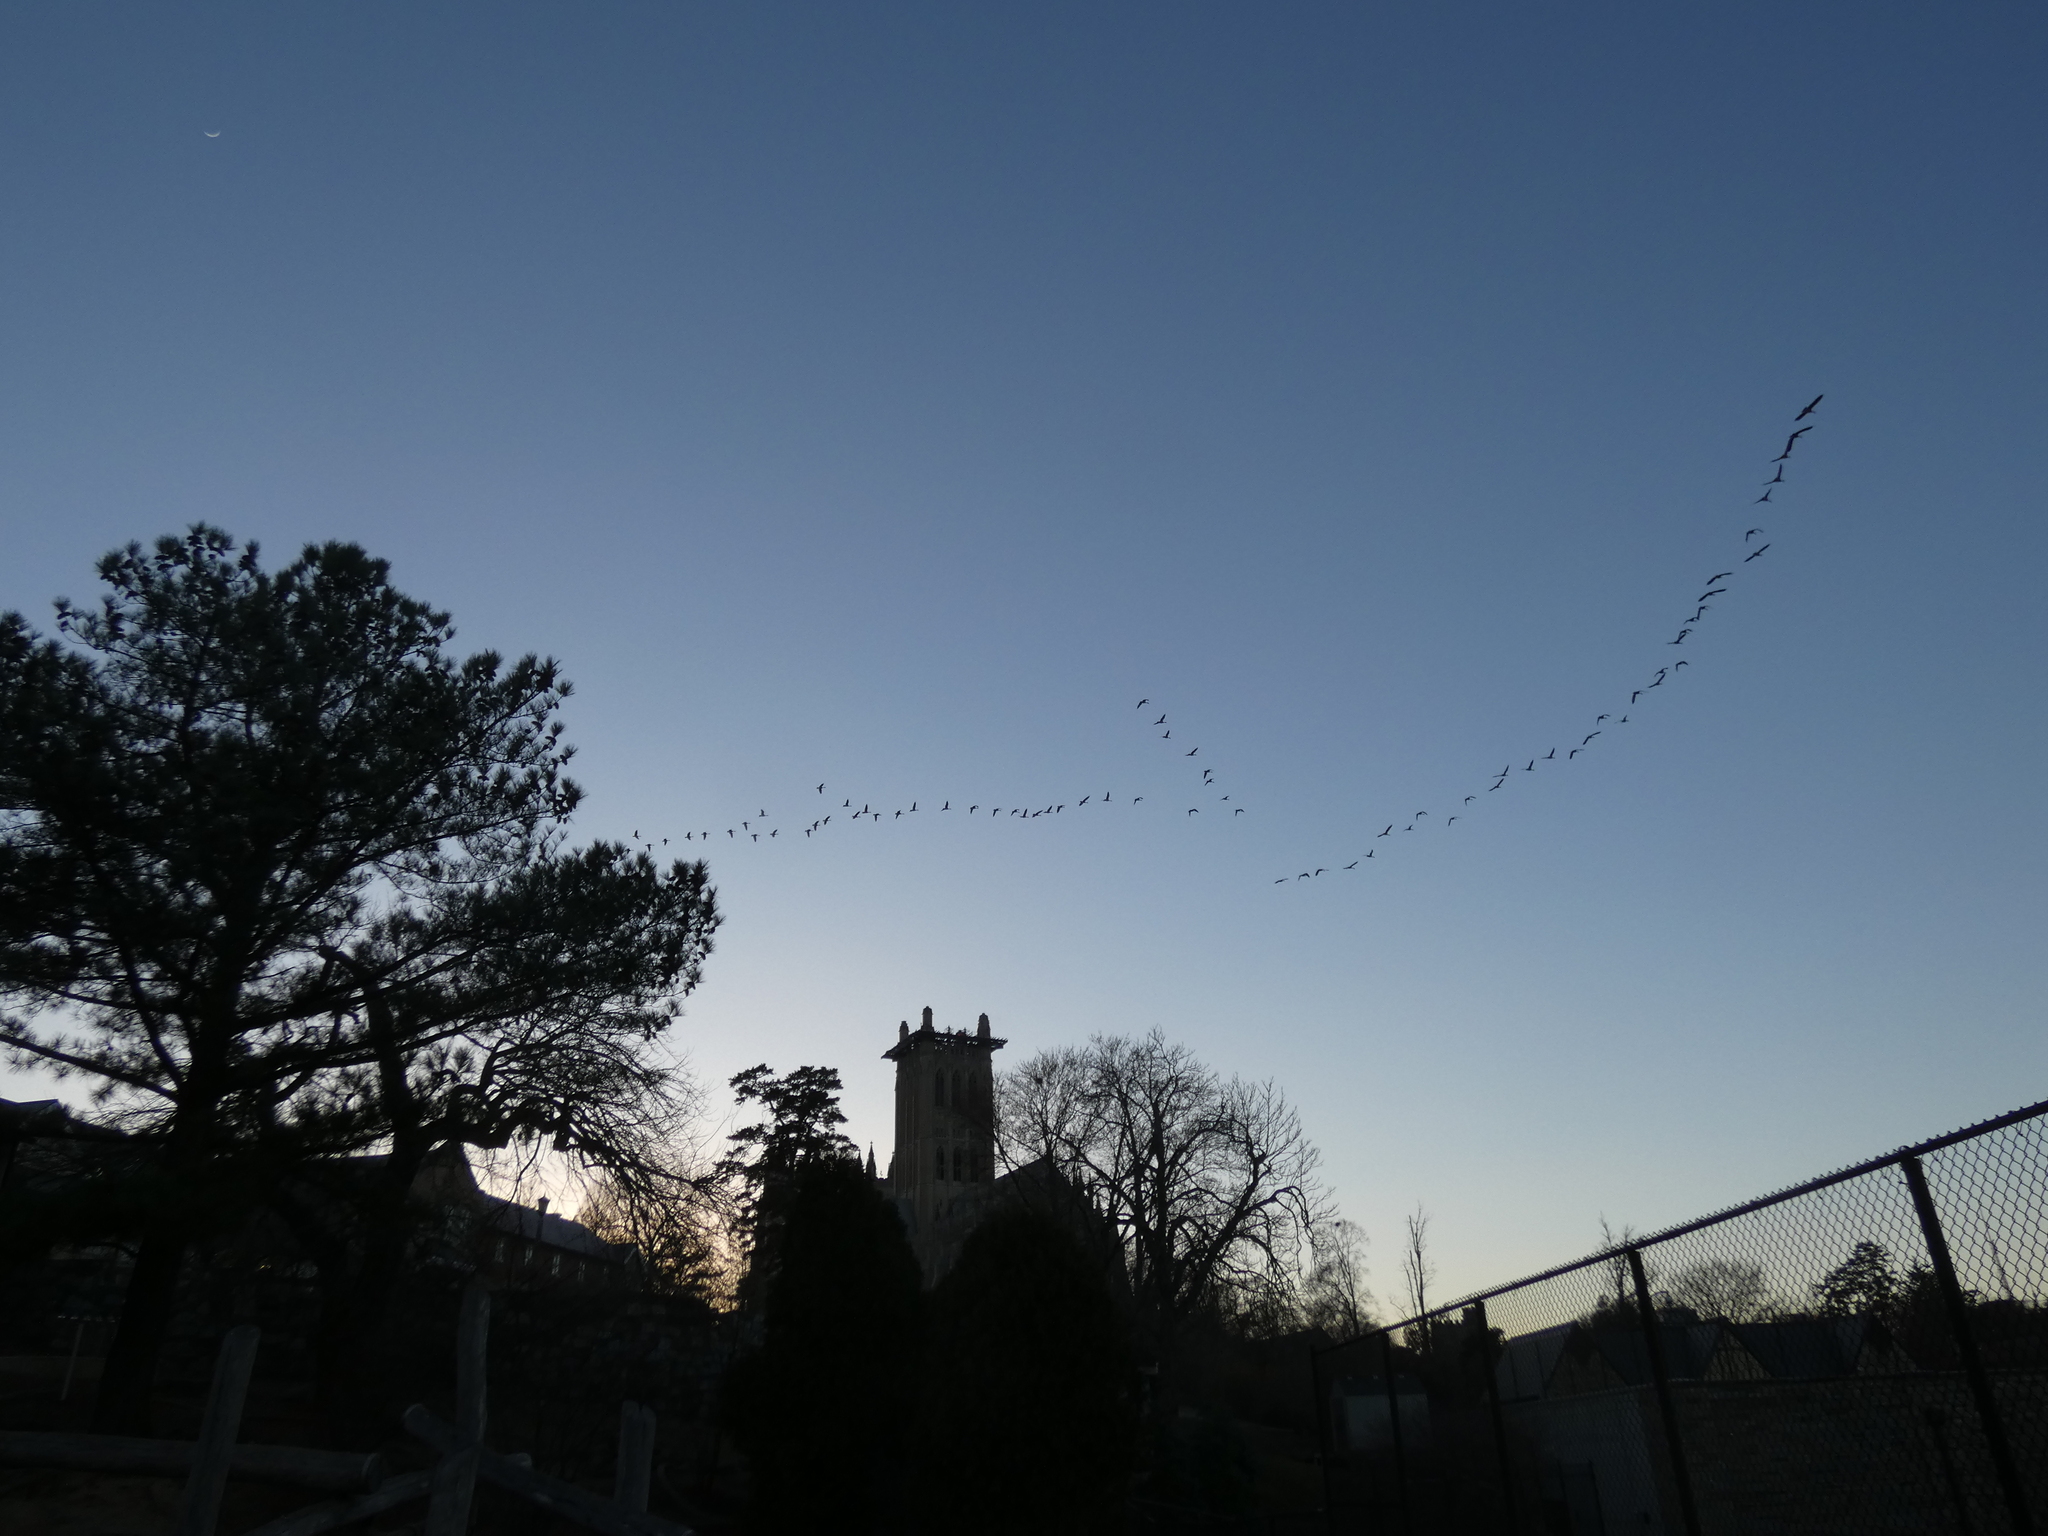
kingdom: Animalia
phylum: Chordata
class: Aves
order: Anseriformes
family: Anatidae
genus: Branta
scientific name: Branta canadensis
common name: Canada goose
